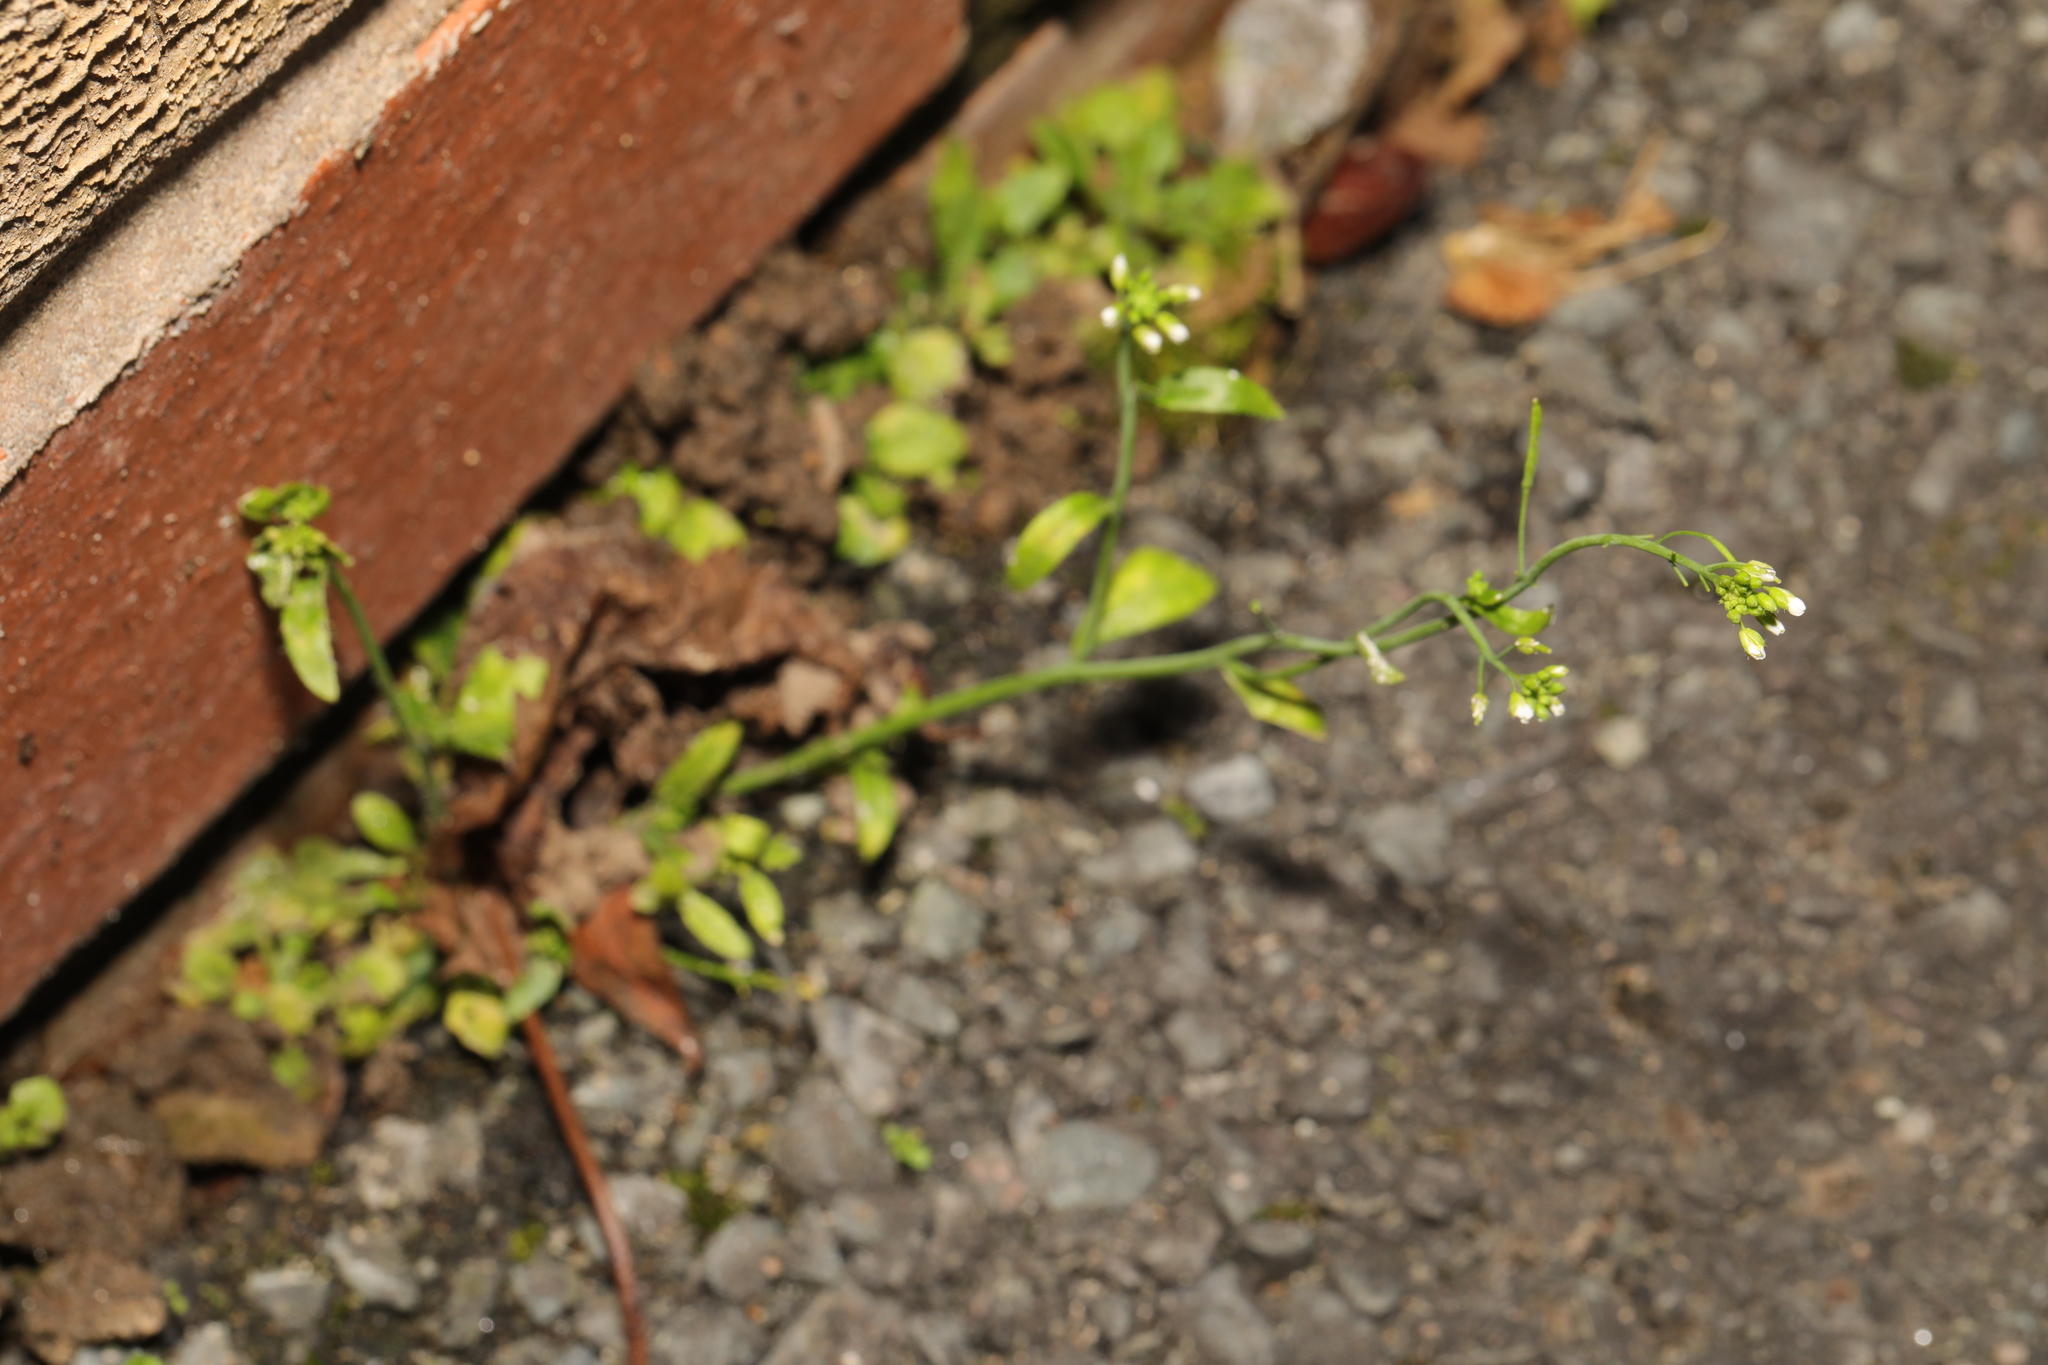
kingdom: Plantae
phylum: Tracheophyta
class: Magnoliopsida
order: Brassicales
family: Brassicaceae
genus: Arabidopsis
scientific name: Arabidopsis thaliana
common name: Thale cress
